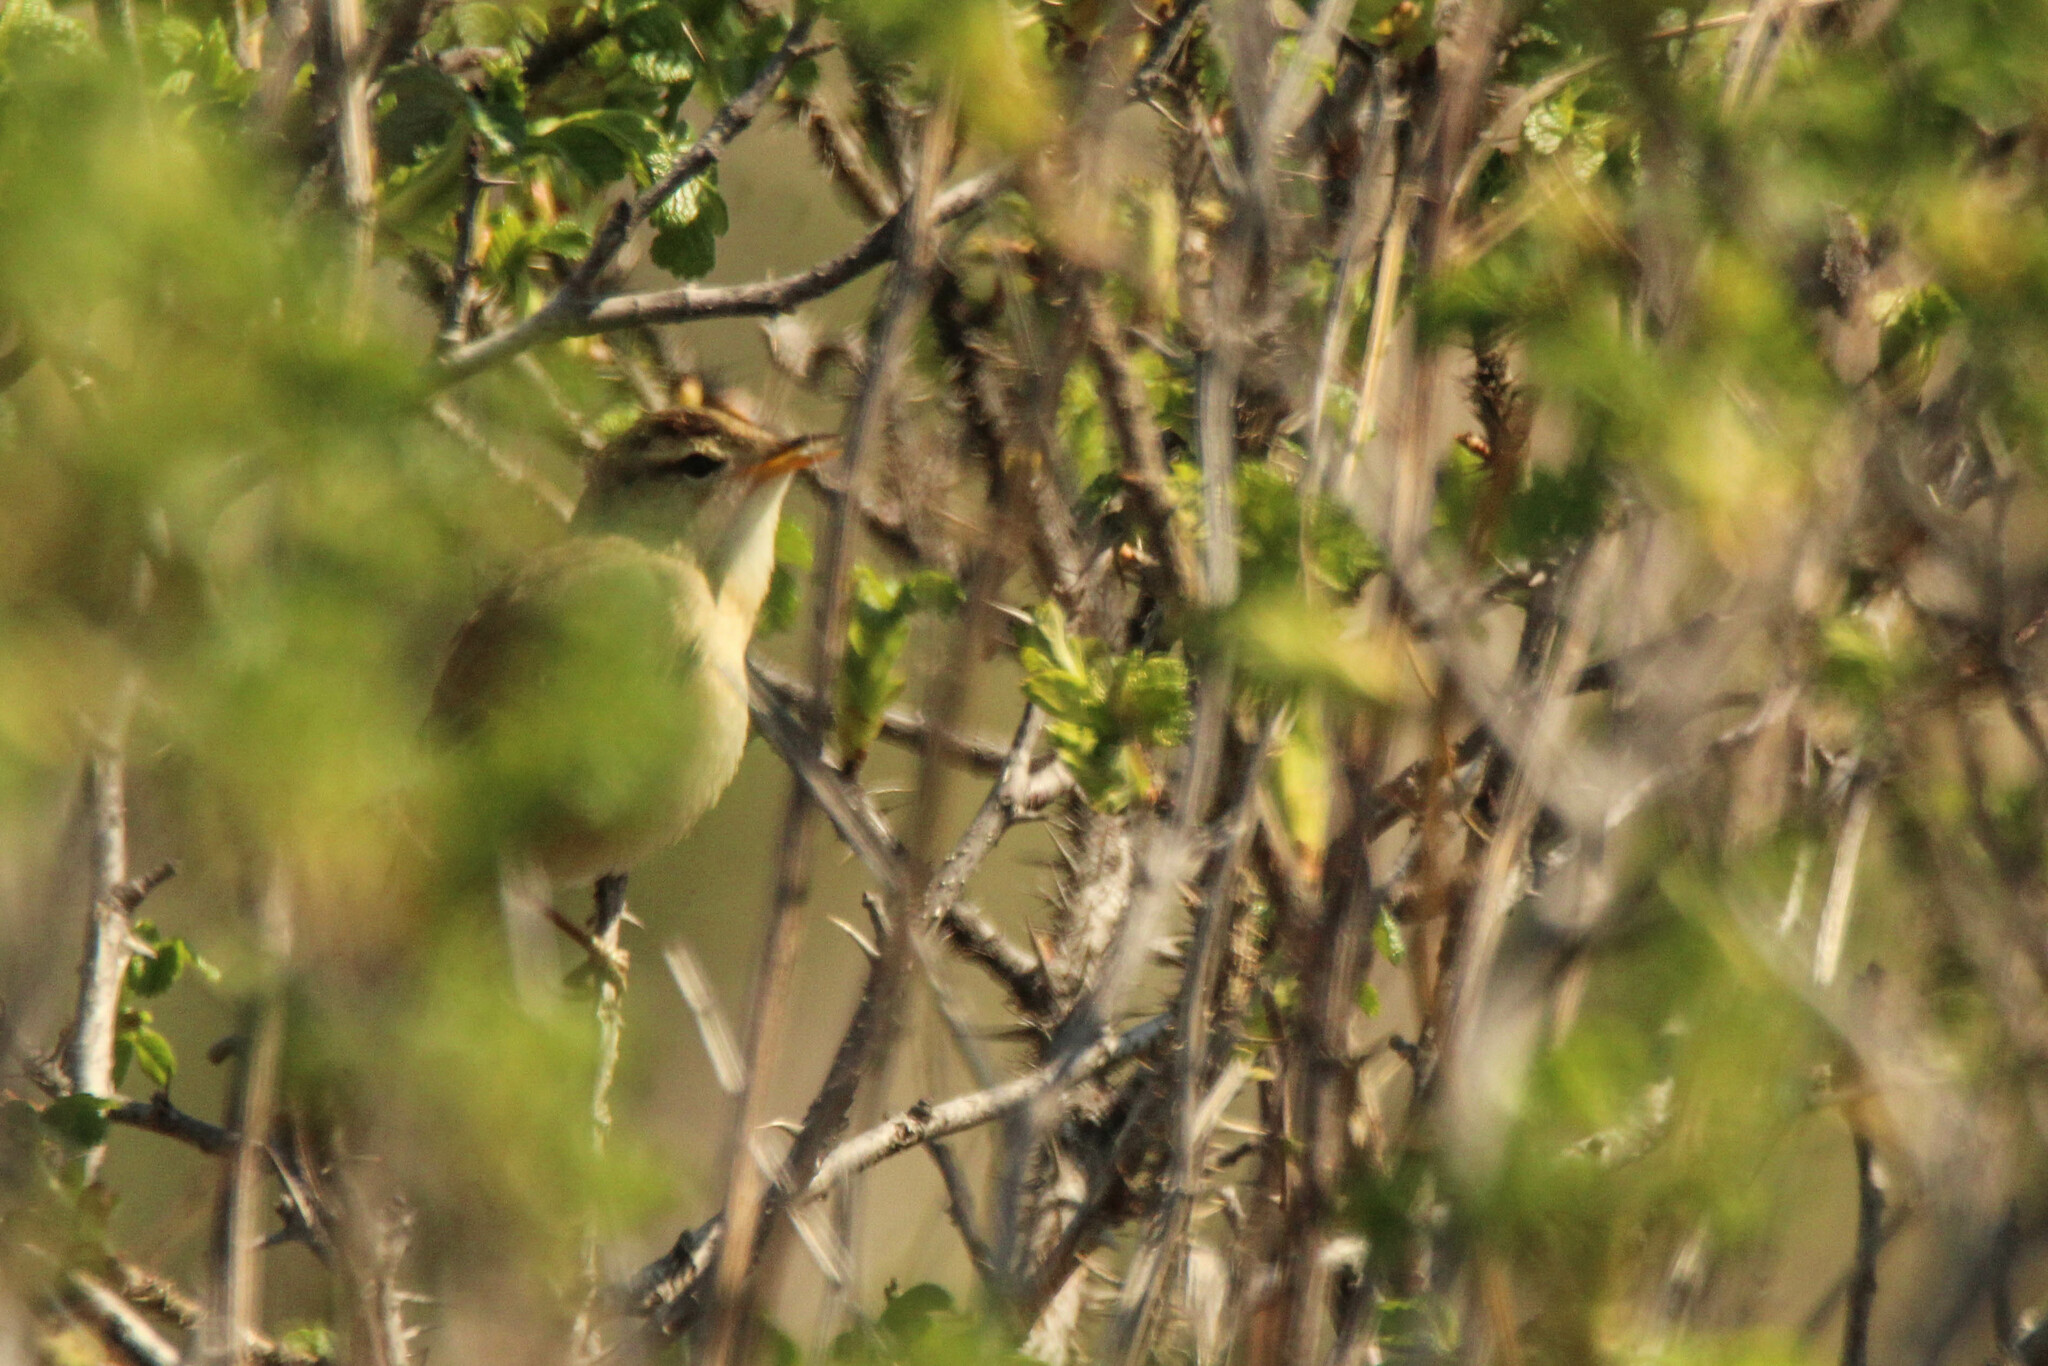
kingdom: Animalia
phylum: Chordata
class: Aves
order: Passeriformes
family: Acrocephalidae
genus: Acrocephalus
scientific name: Acrocephalus bistrigiceps
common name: Black-browed reed warbler
